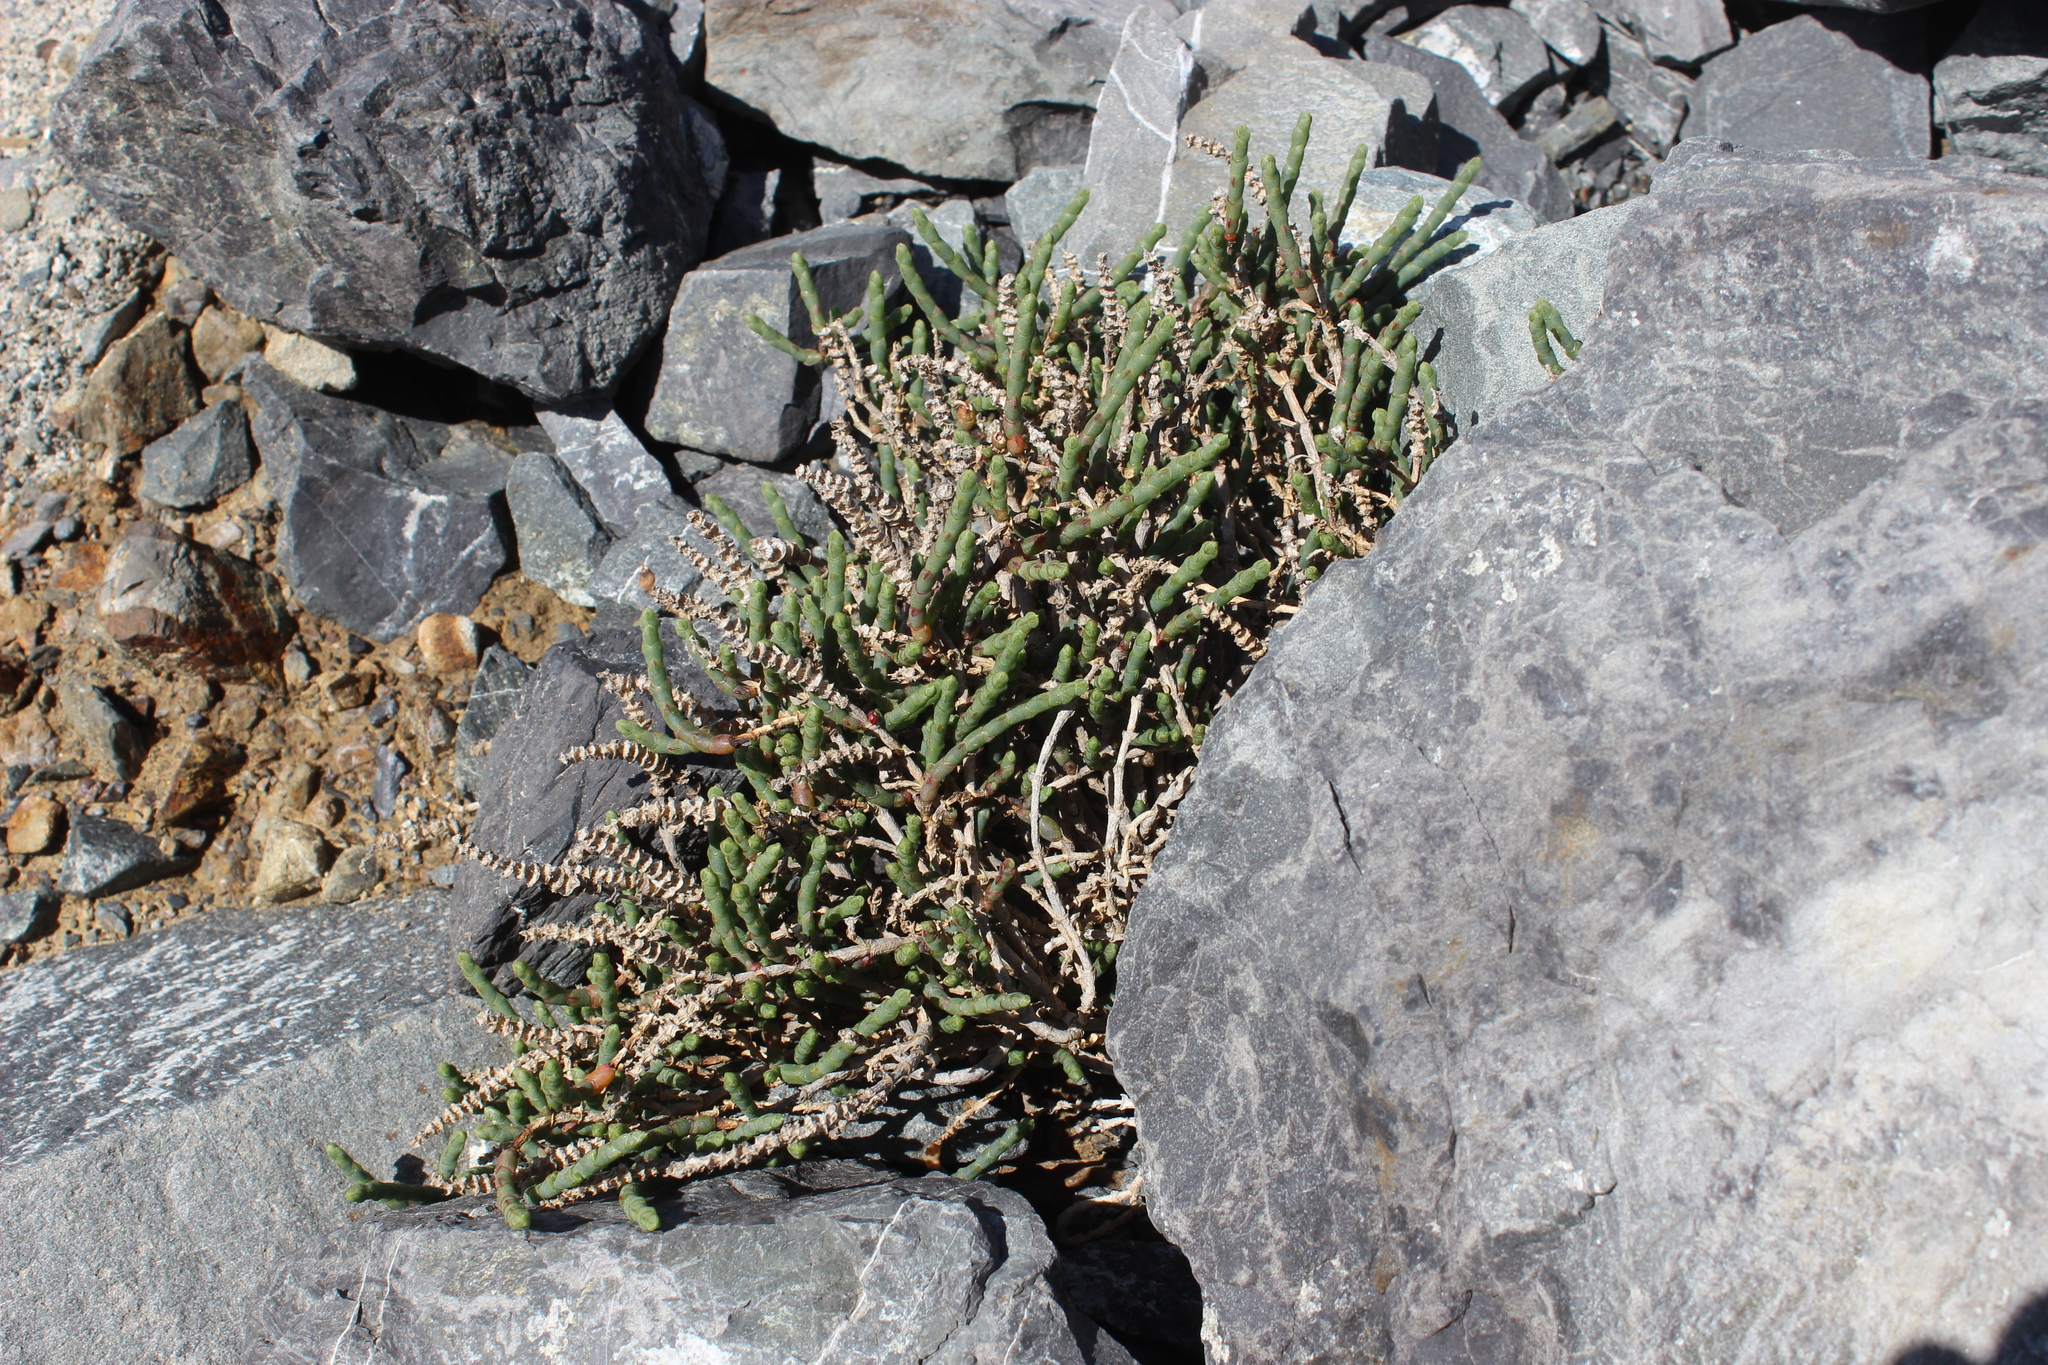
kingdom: Plantae
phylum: Tracheophyta
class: Magnoliopsida
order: Caryophyllales
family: Amaranthaceae
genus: Salicornia
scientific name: Salicornia quinqueflora
